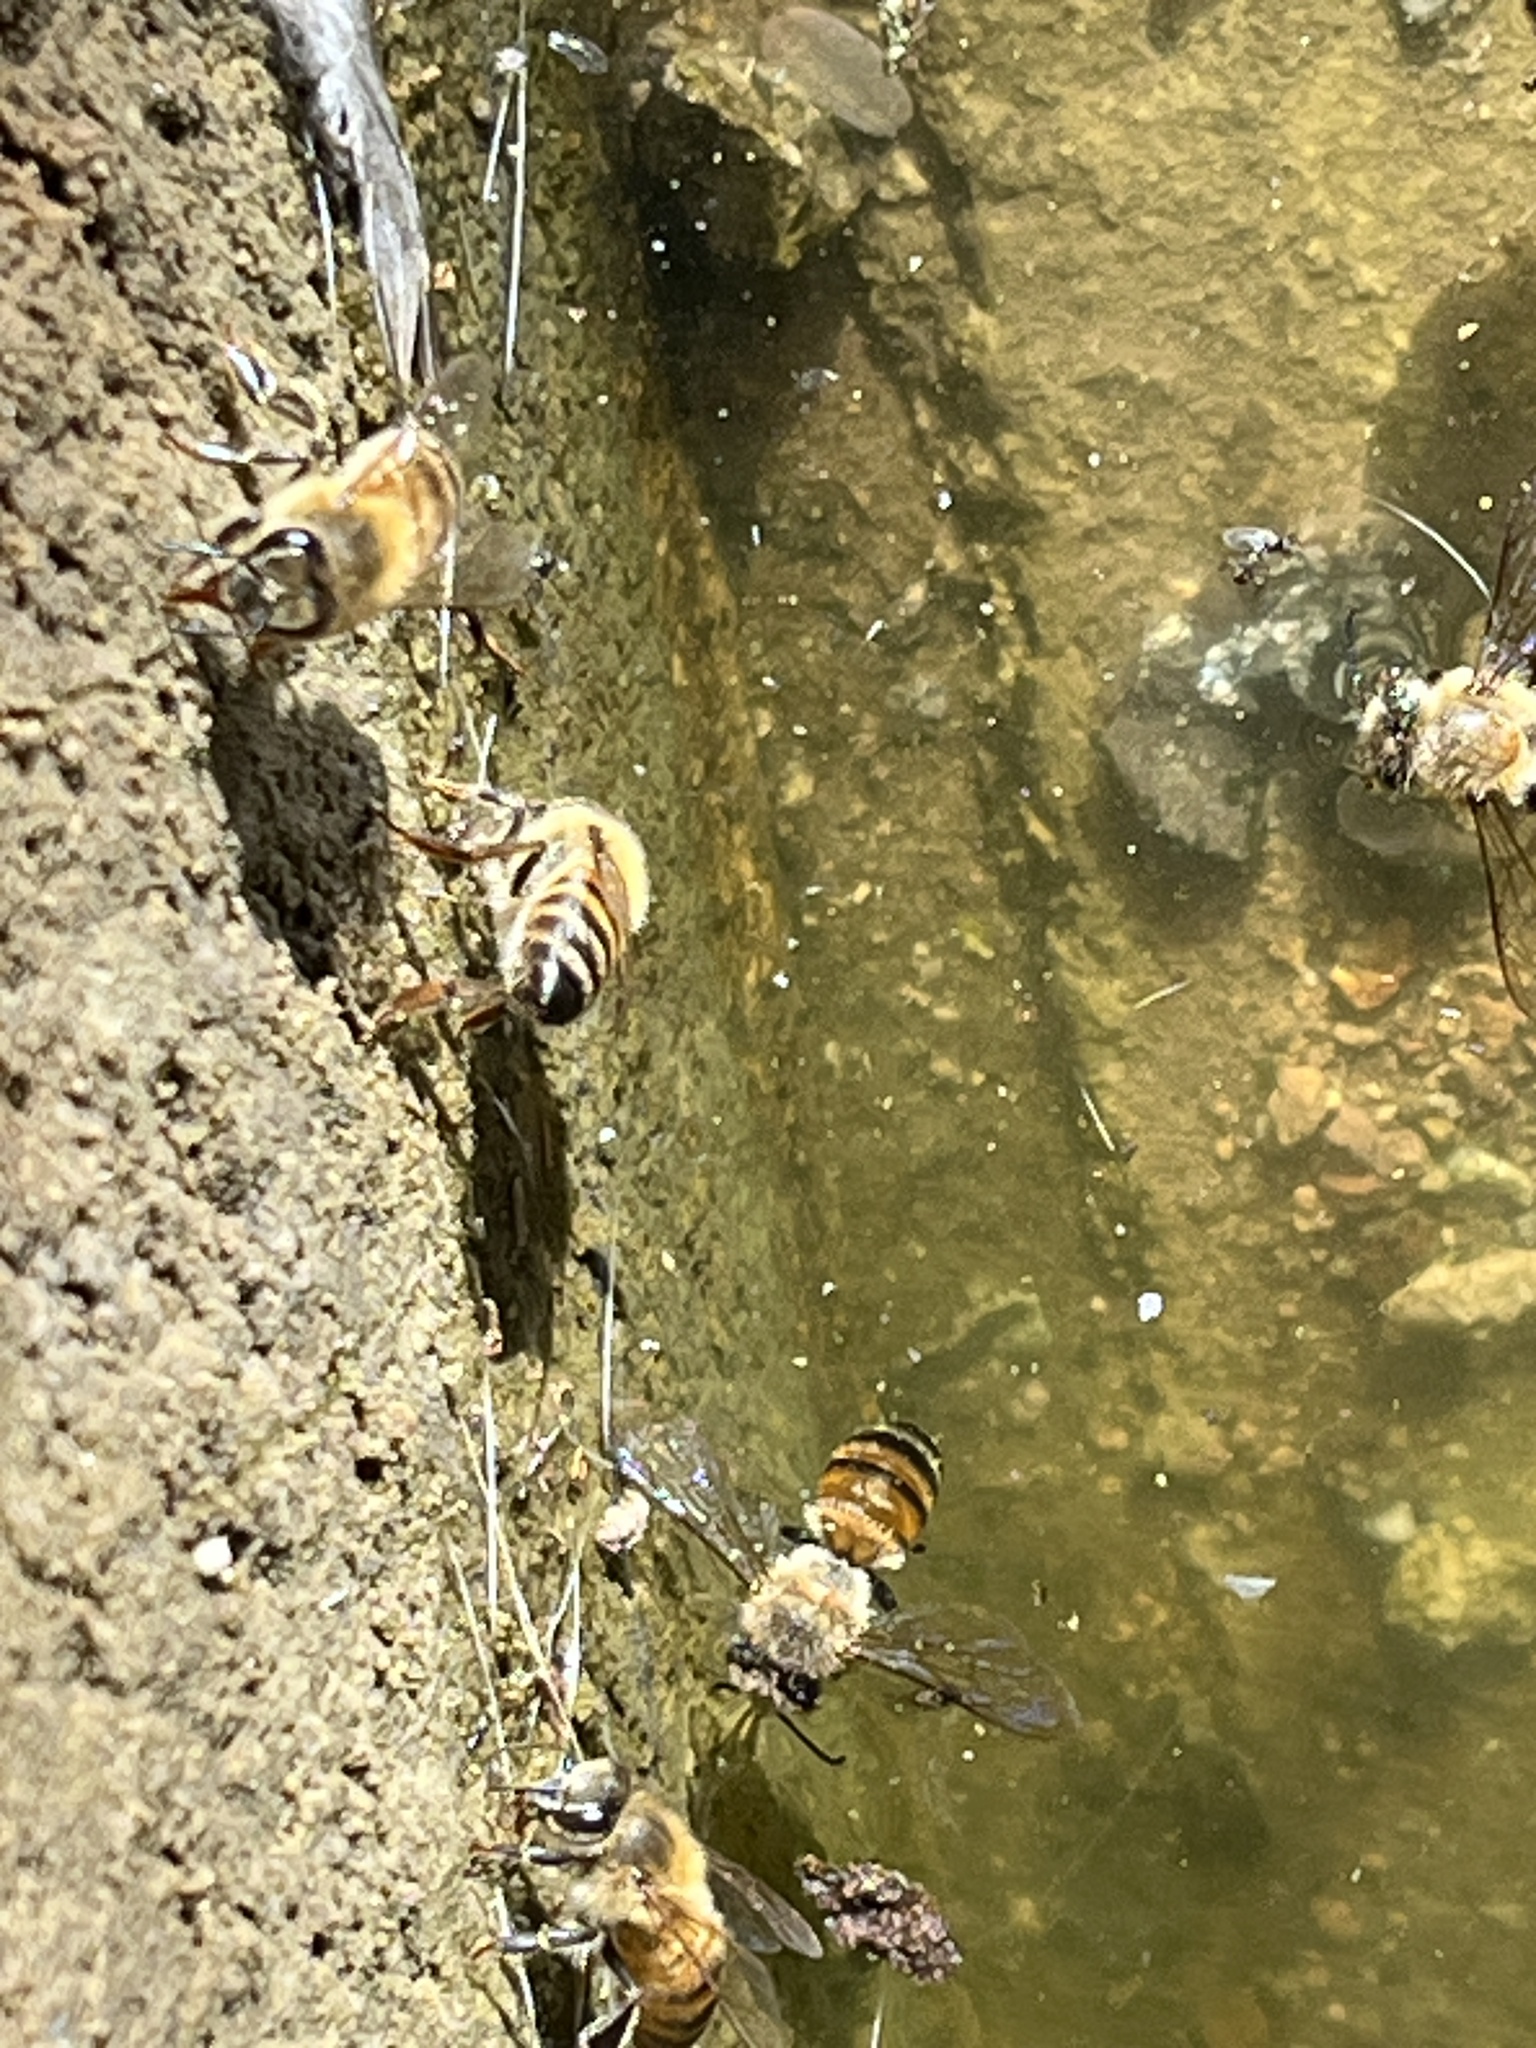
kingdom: Animalia
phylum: Arthropoda
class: Insecta
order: Hymenoptera
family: Apidae
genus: Apis
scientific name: Apis mellifera
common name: Honey bee
